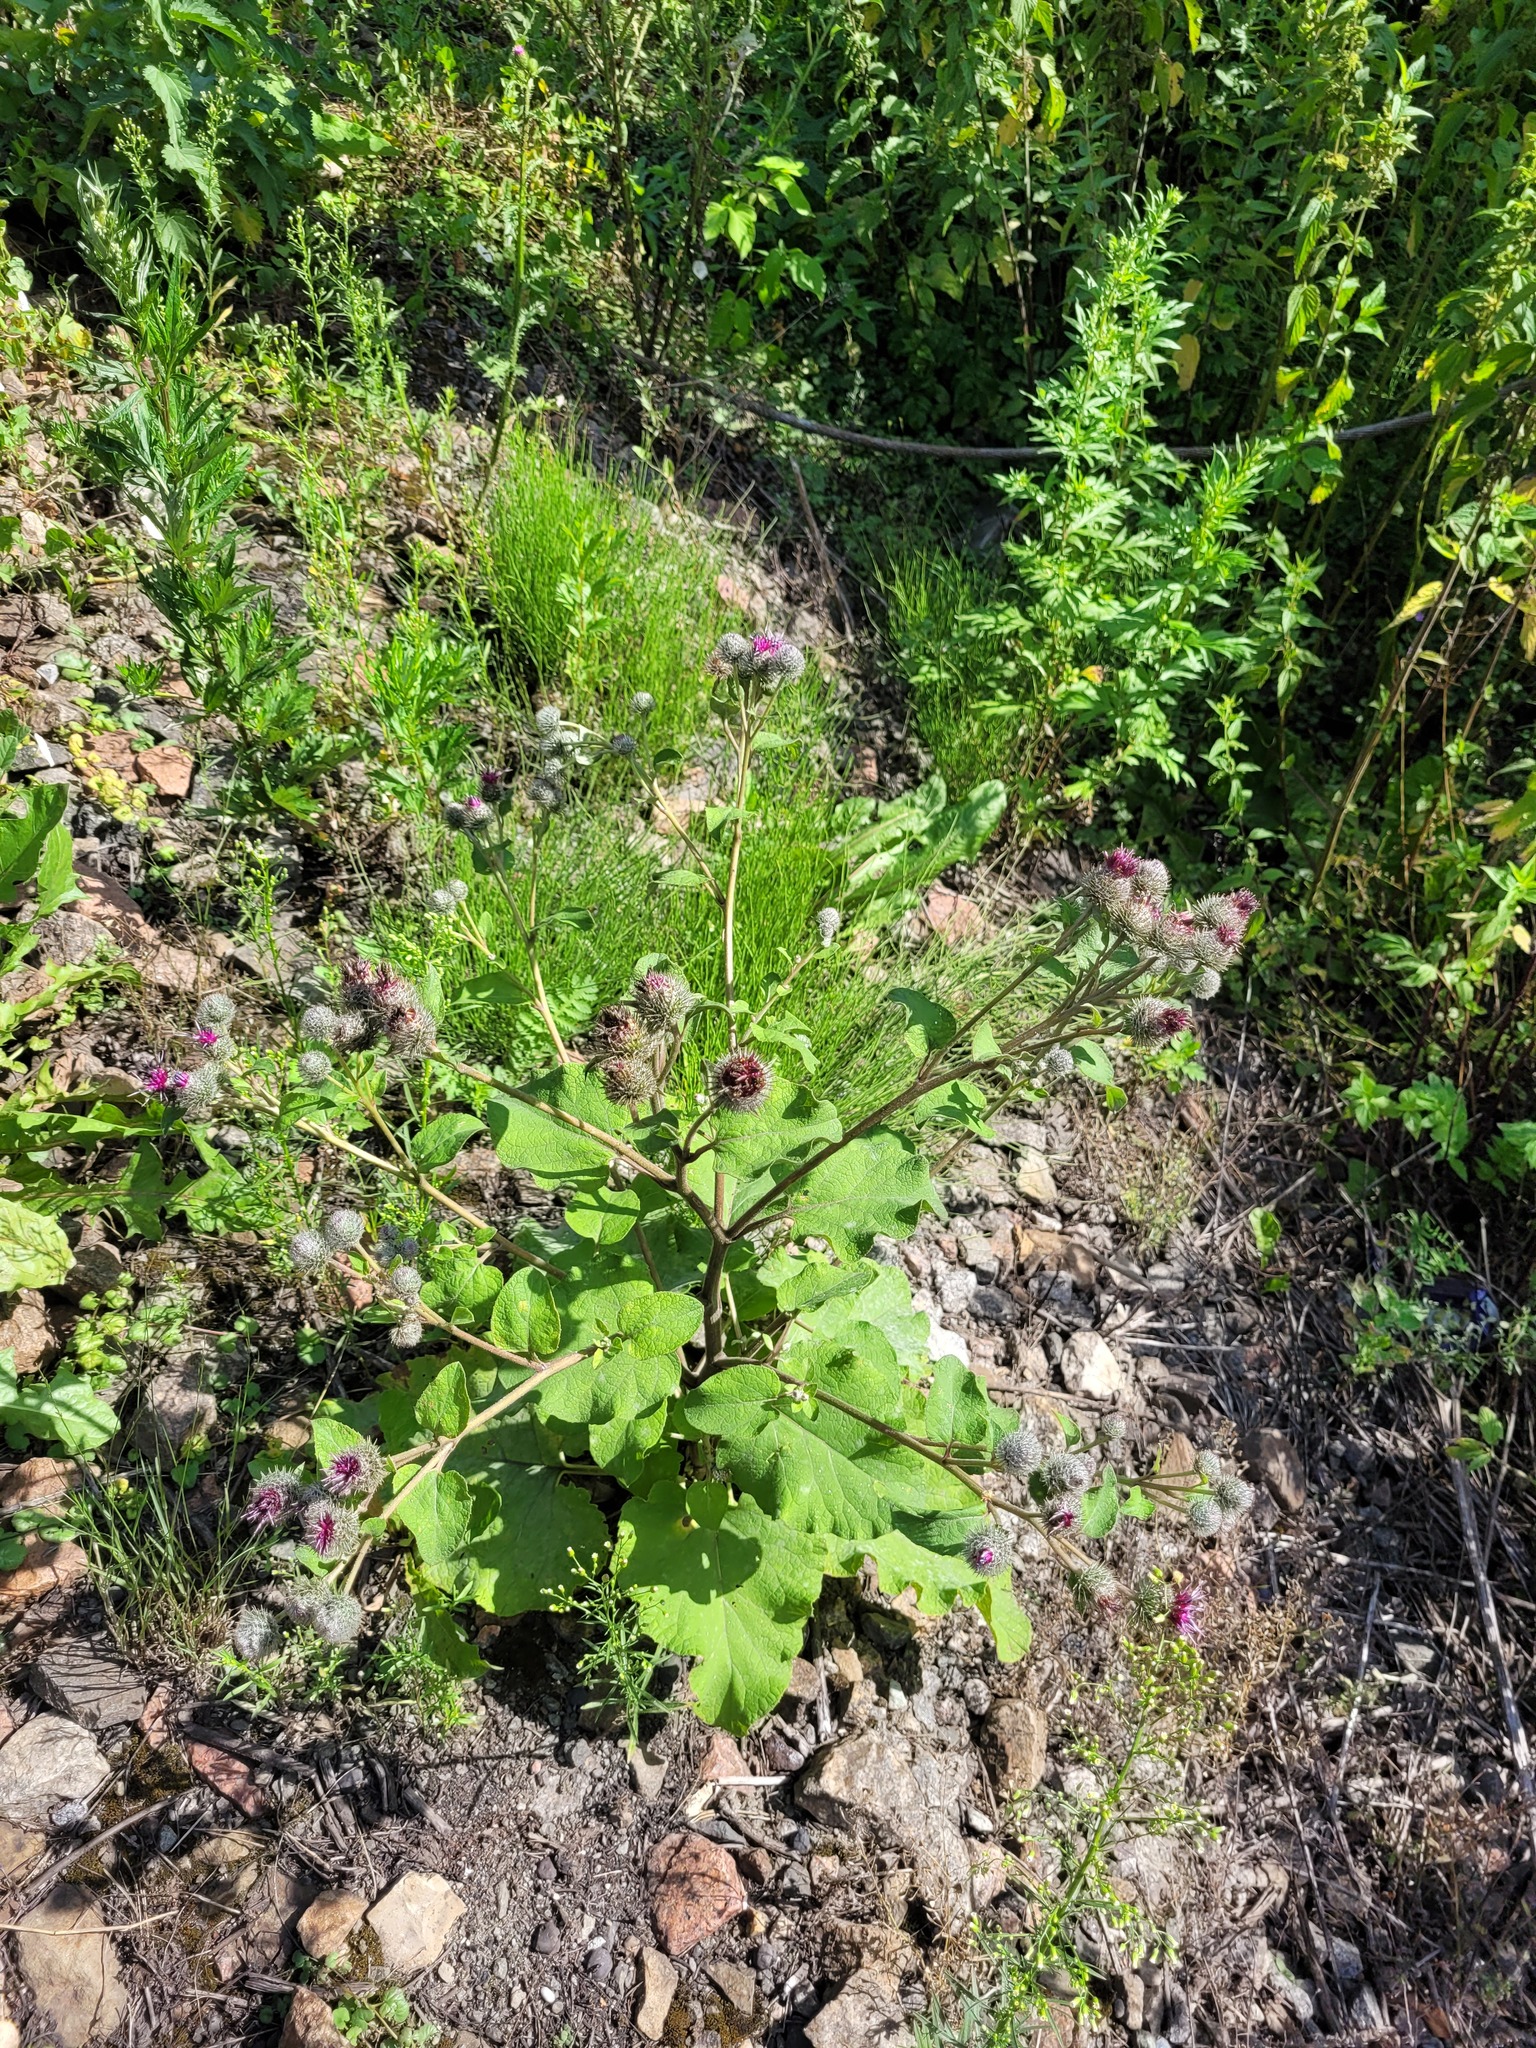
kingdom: Plantae
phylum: Tracheophyta
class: Magnoliopsida
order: Asterales
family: Asteraceae
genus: Arctium
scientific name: Arctium tomentosum
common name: Woolly burdock
